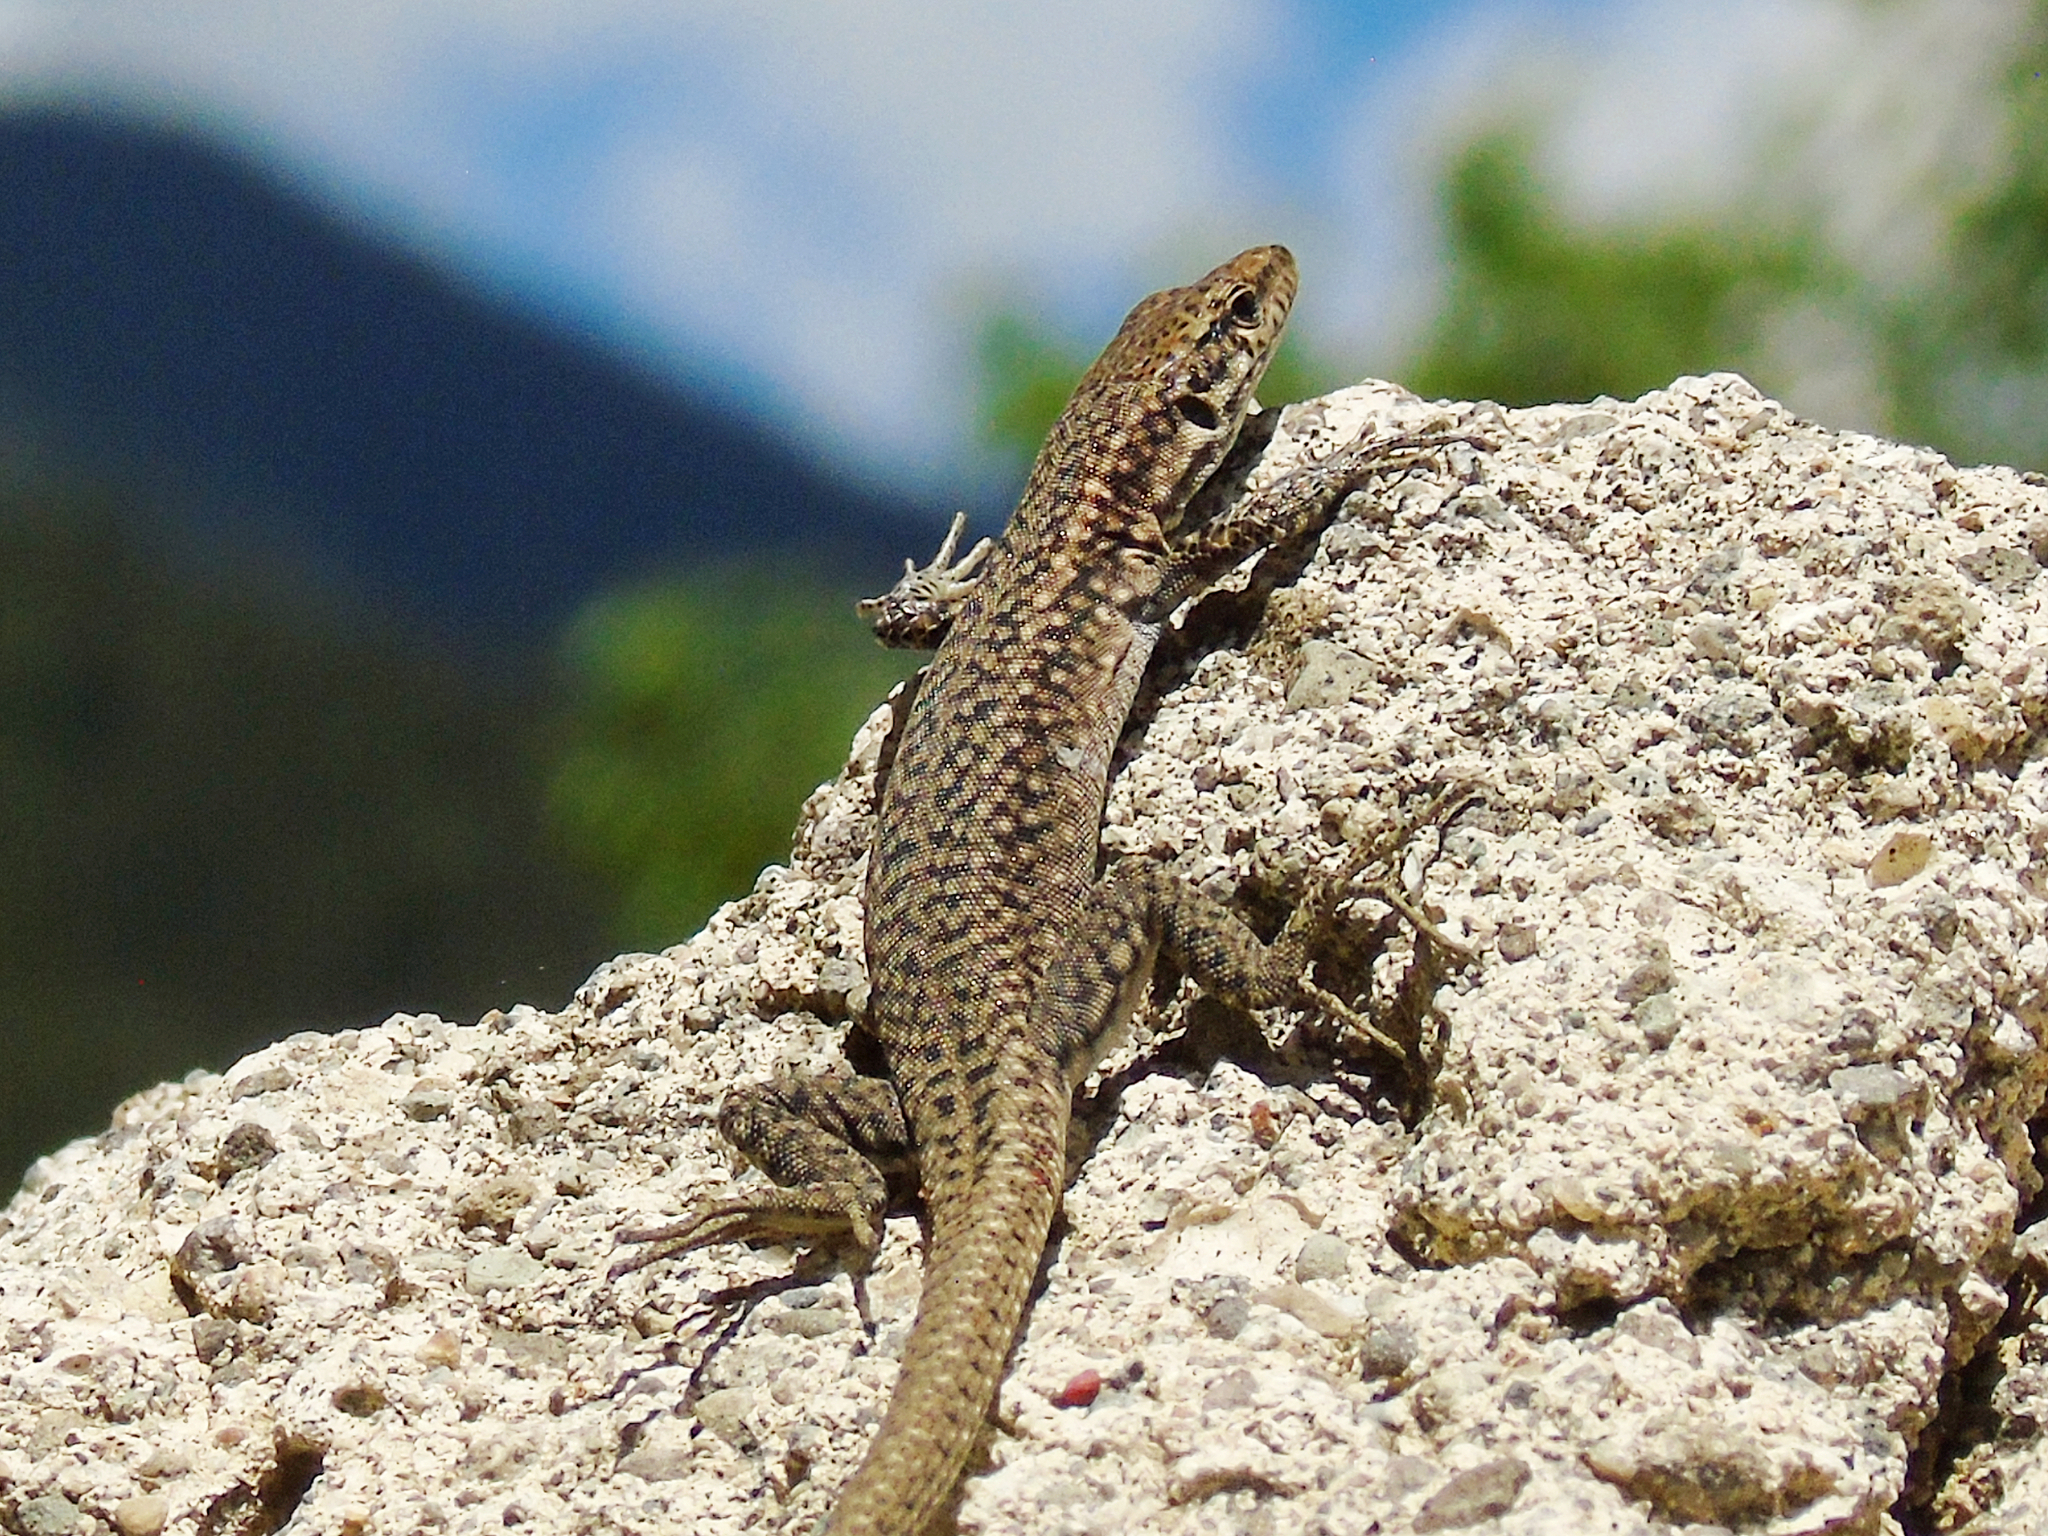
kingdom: Animalia
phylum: Chordata
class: Squamata
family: Lacertidae
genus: Darevskia
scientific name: Darevskia
